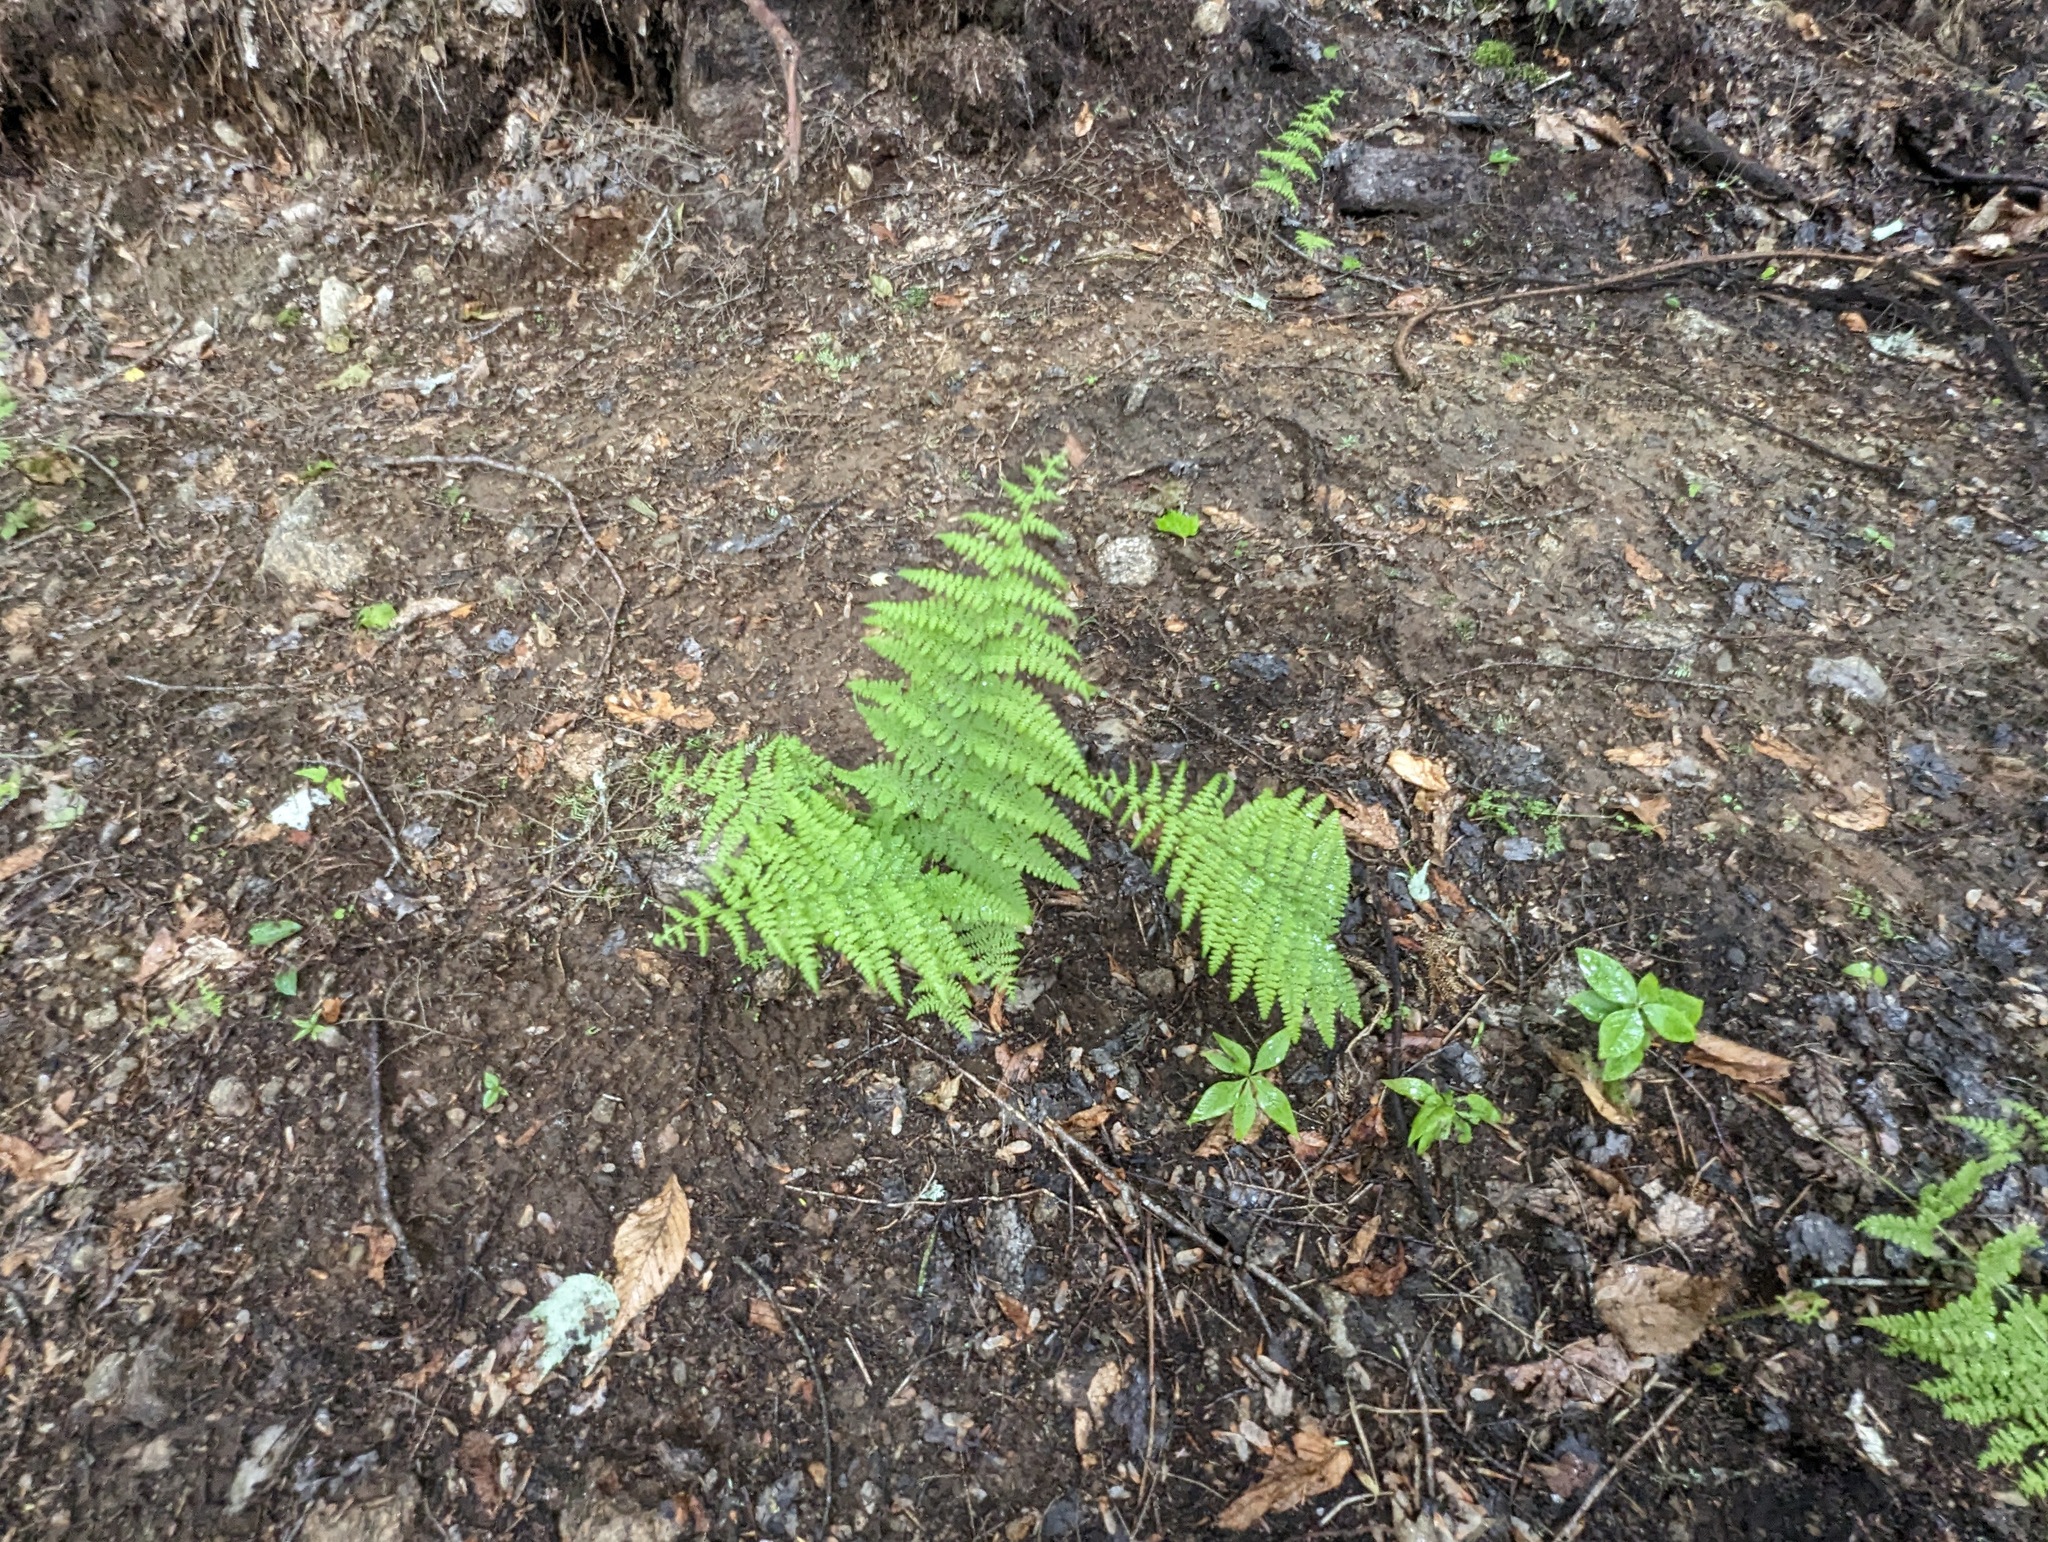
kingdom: Plantae
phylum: Tracheophyta
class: Polypodiopsida
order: Polypodiales
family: Dennstaedtiaceae
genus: Sitobolium
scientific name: Sitobolium punctilobum
